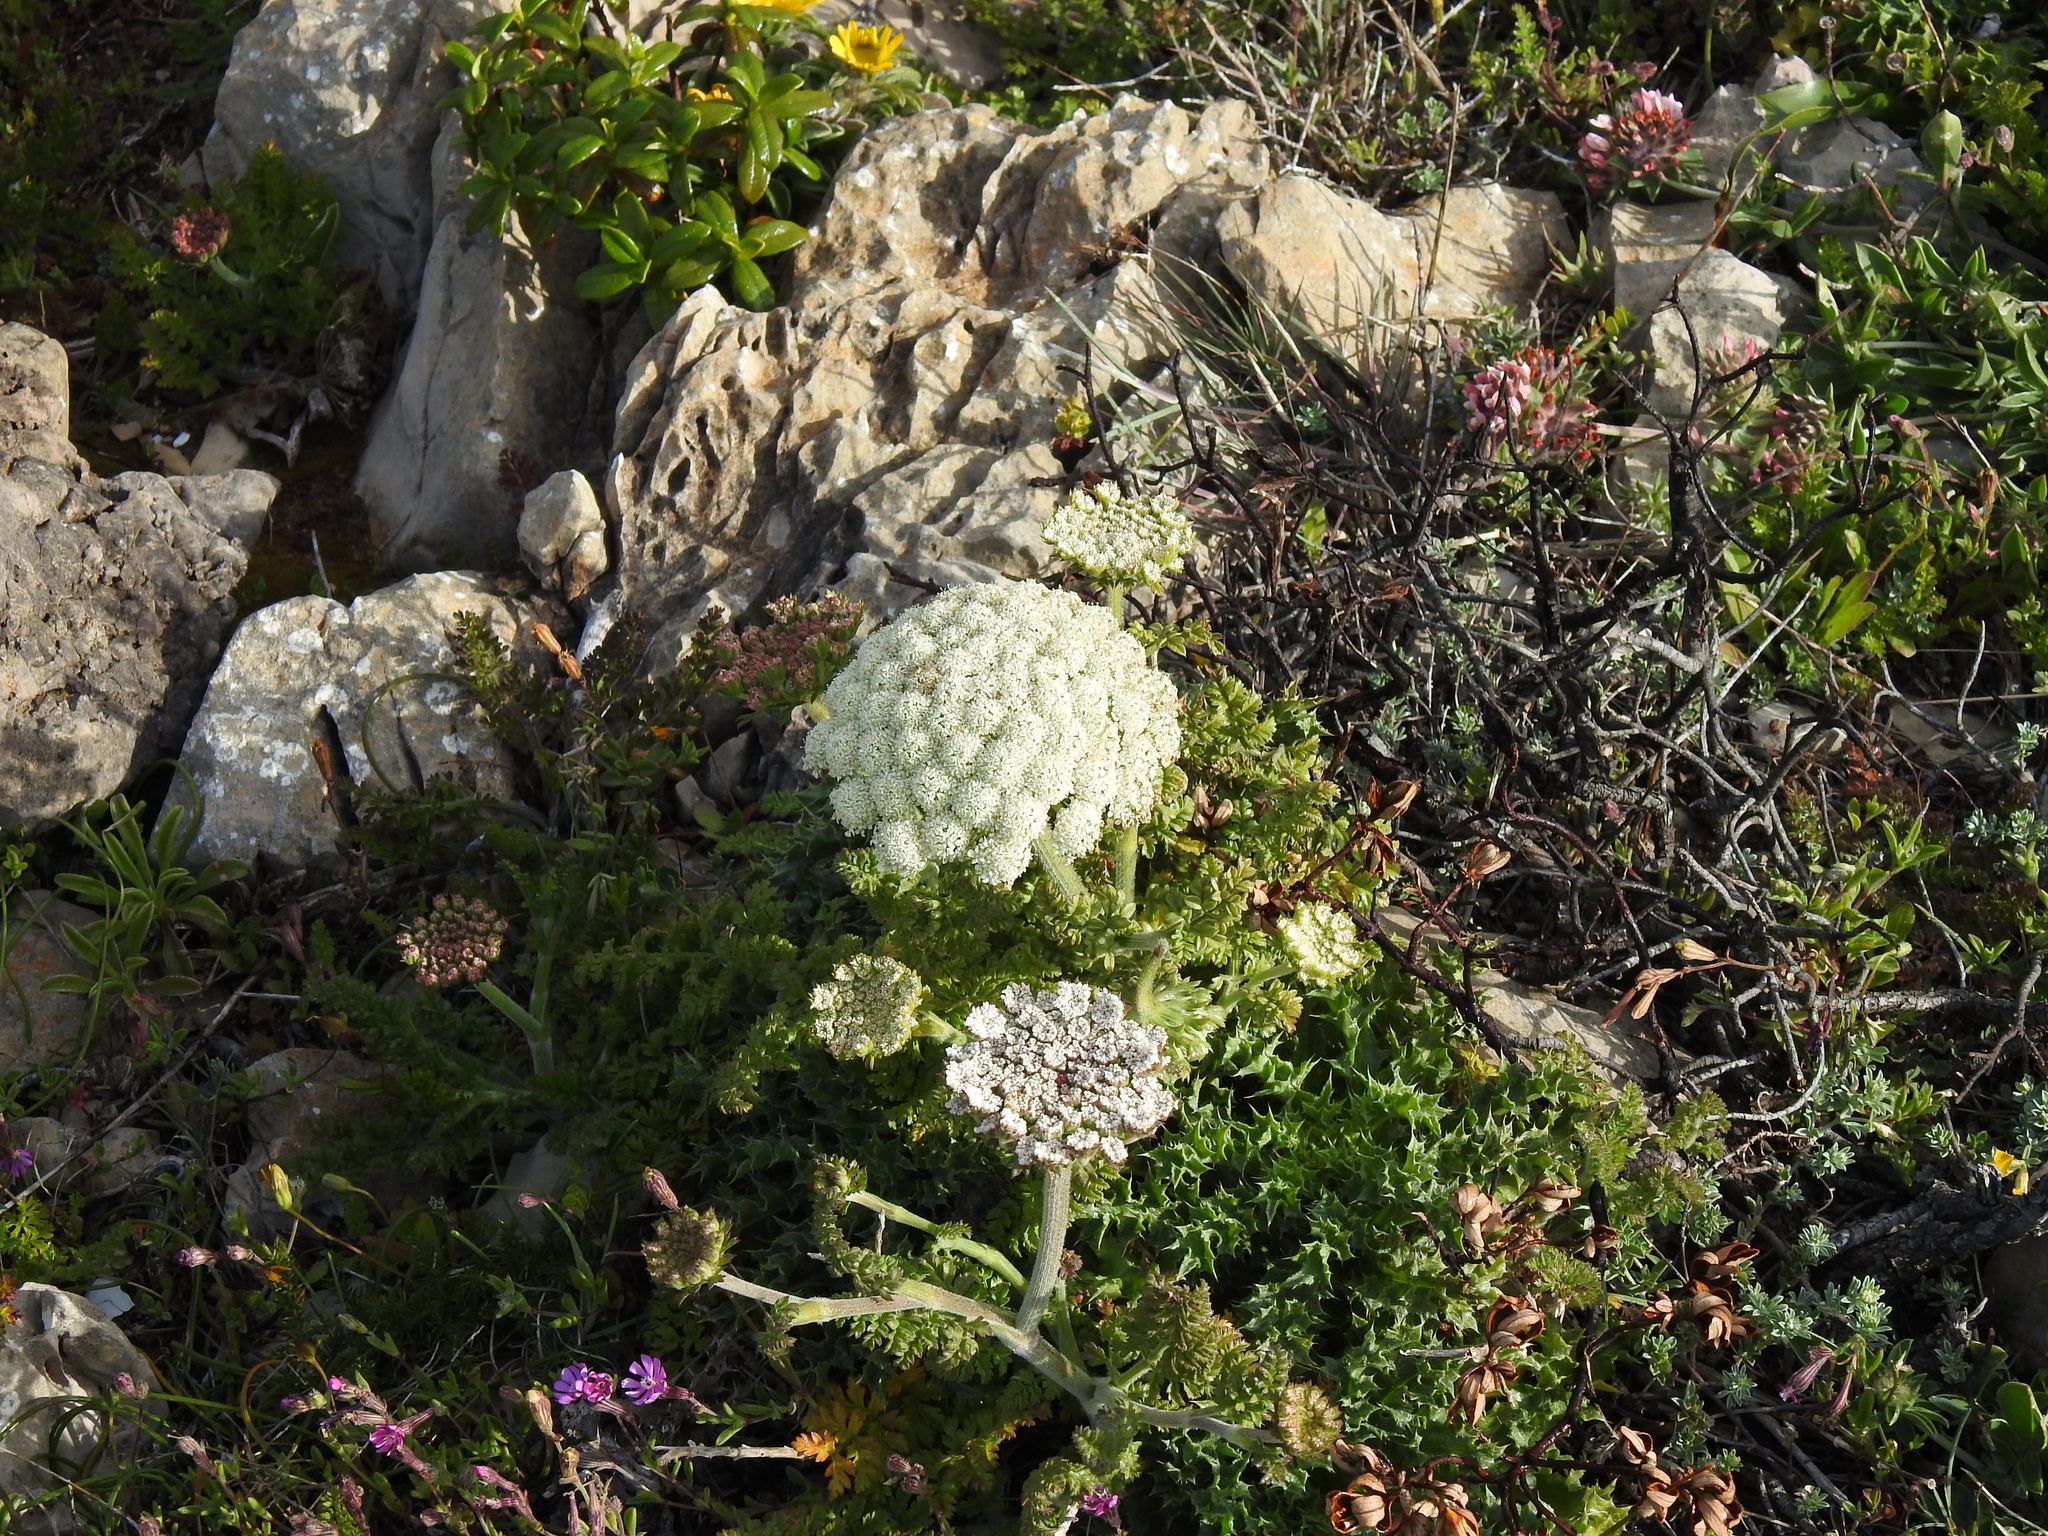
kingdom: Plantae
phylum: Tracheophyta
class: Magnoliopsida
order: Apiales
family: Apiaceae
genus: Daucus
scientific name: Daucus carota
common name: Wild carrot
